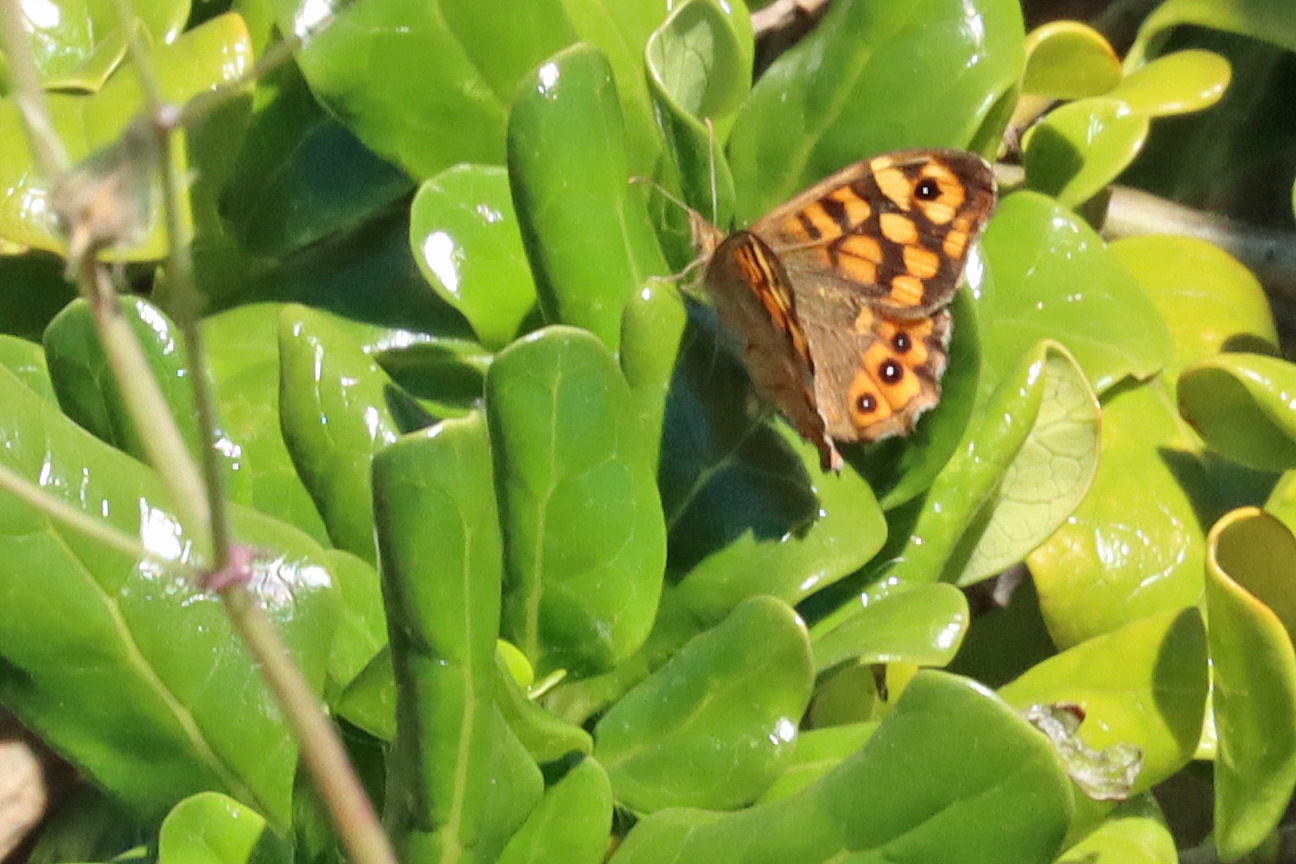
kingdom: Animalia
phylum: Arthropoda
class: Insecta
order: Lepidoptera
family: Nymphalidae
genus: Pararge
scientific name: Pararge aegeria
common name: Speckled wood
